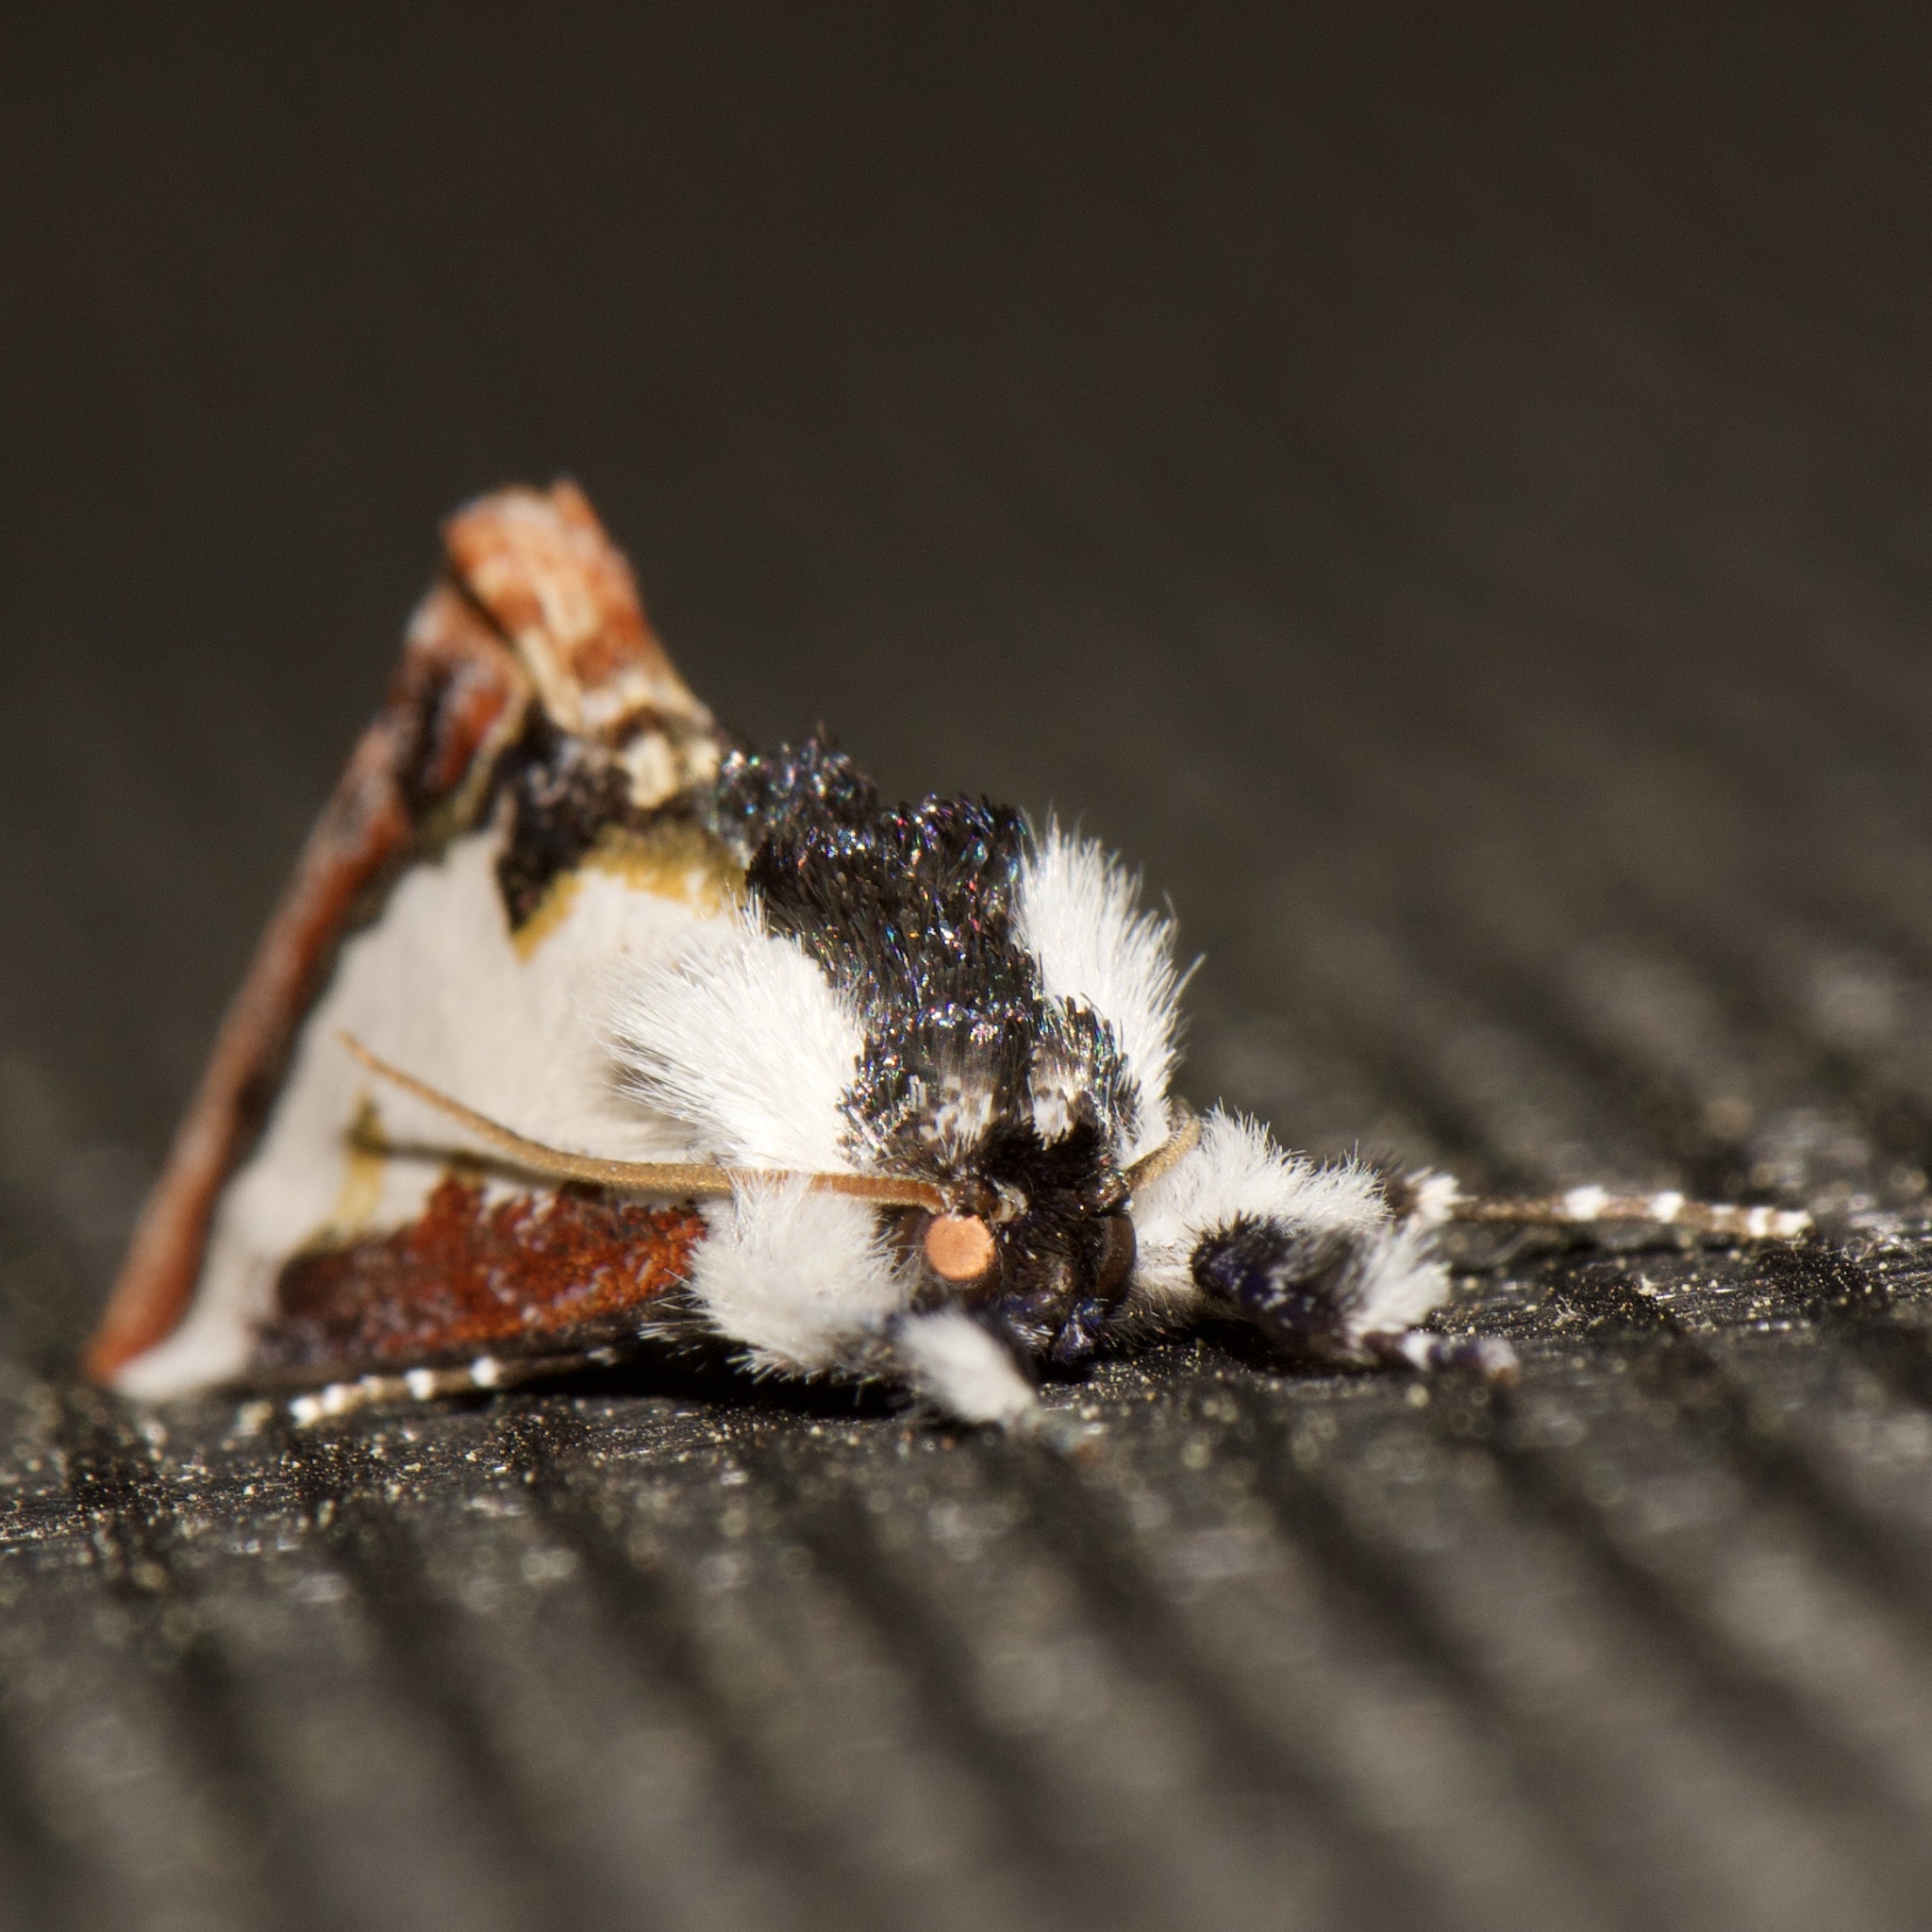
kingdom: Animalia
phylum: Arthropoda
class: Insecta
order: Lepidoptera
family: Noctuidae
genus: Eudryas
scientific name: Eudryas unio
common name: Pearly wood-nymph
